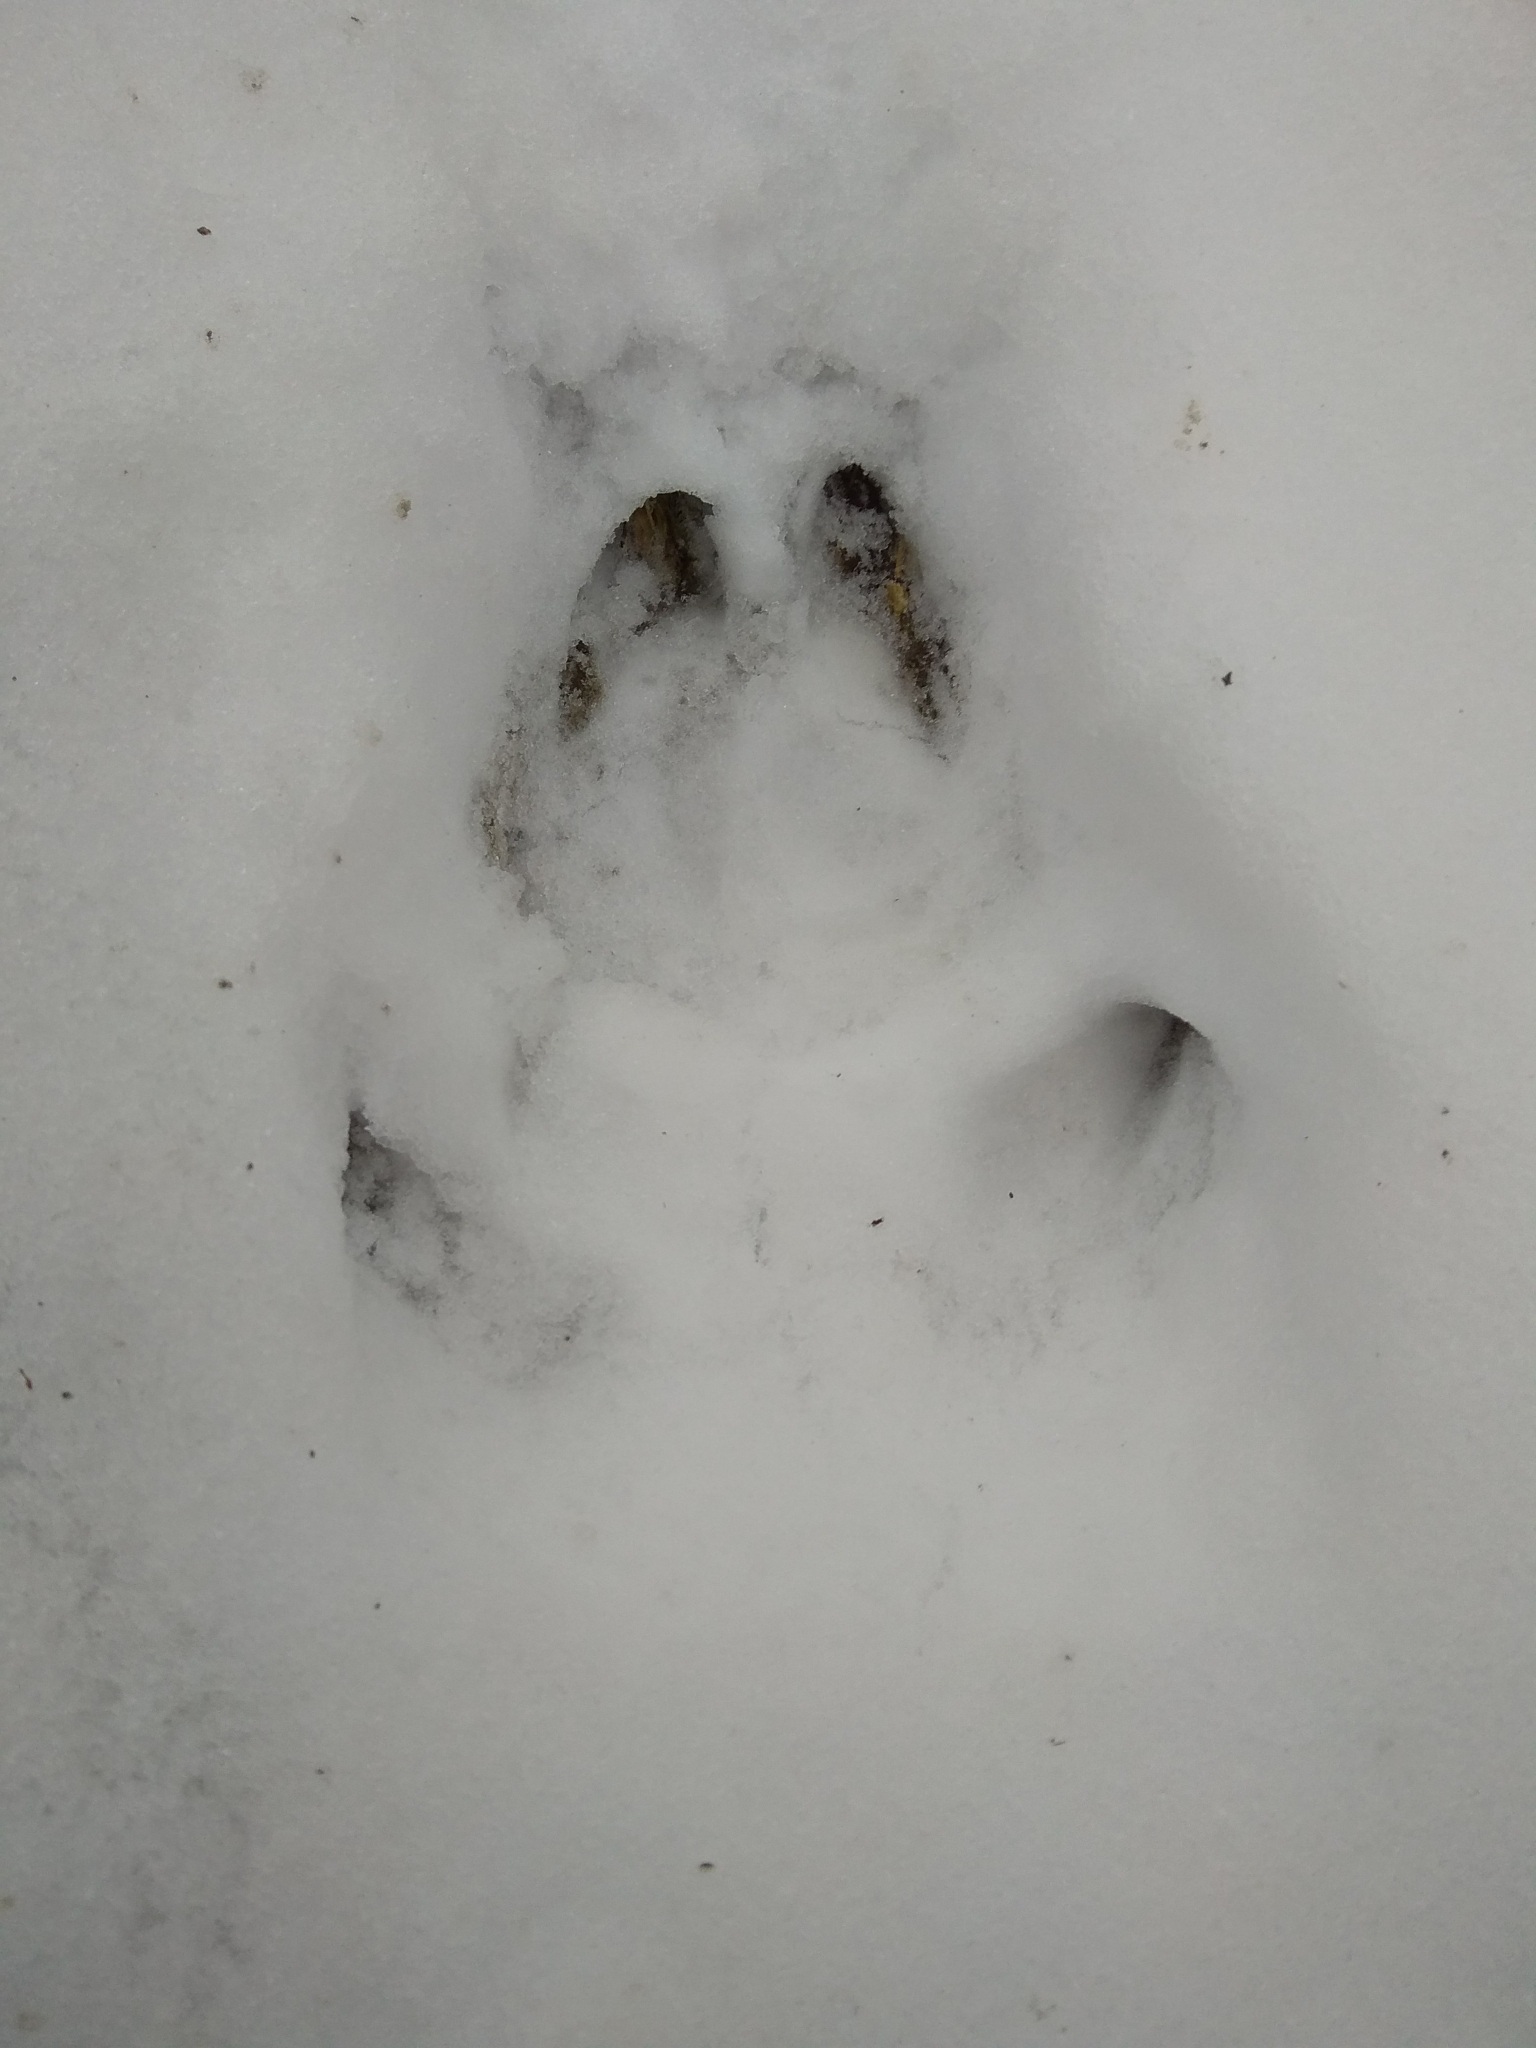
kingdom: Animalia
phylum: Chordata
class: Mammalia
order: Artiodactyla
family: Suidae
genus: Sus
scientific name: Sus scrofa
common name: Wild boar
